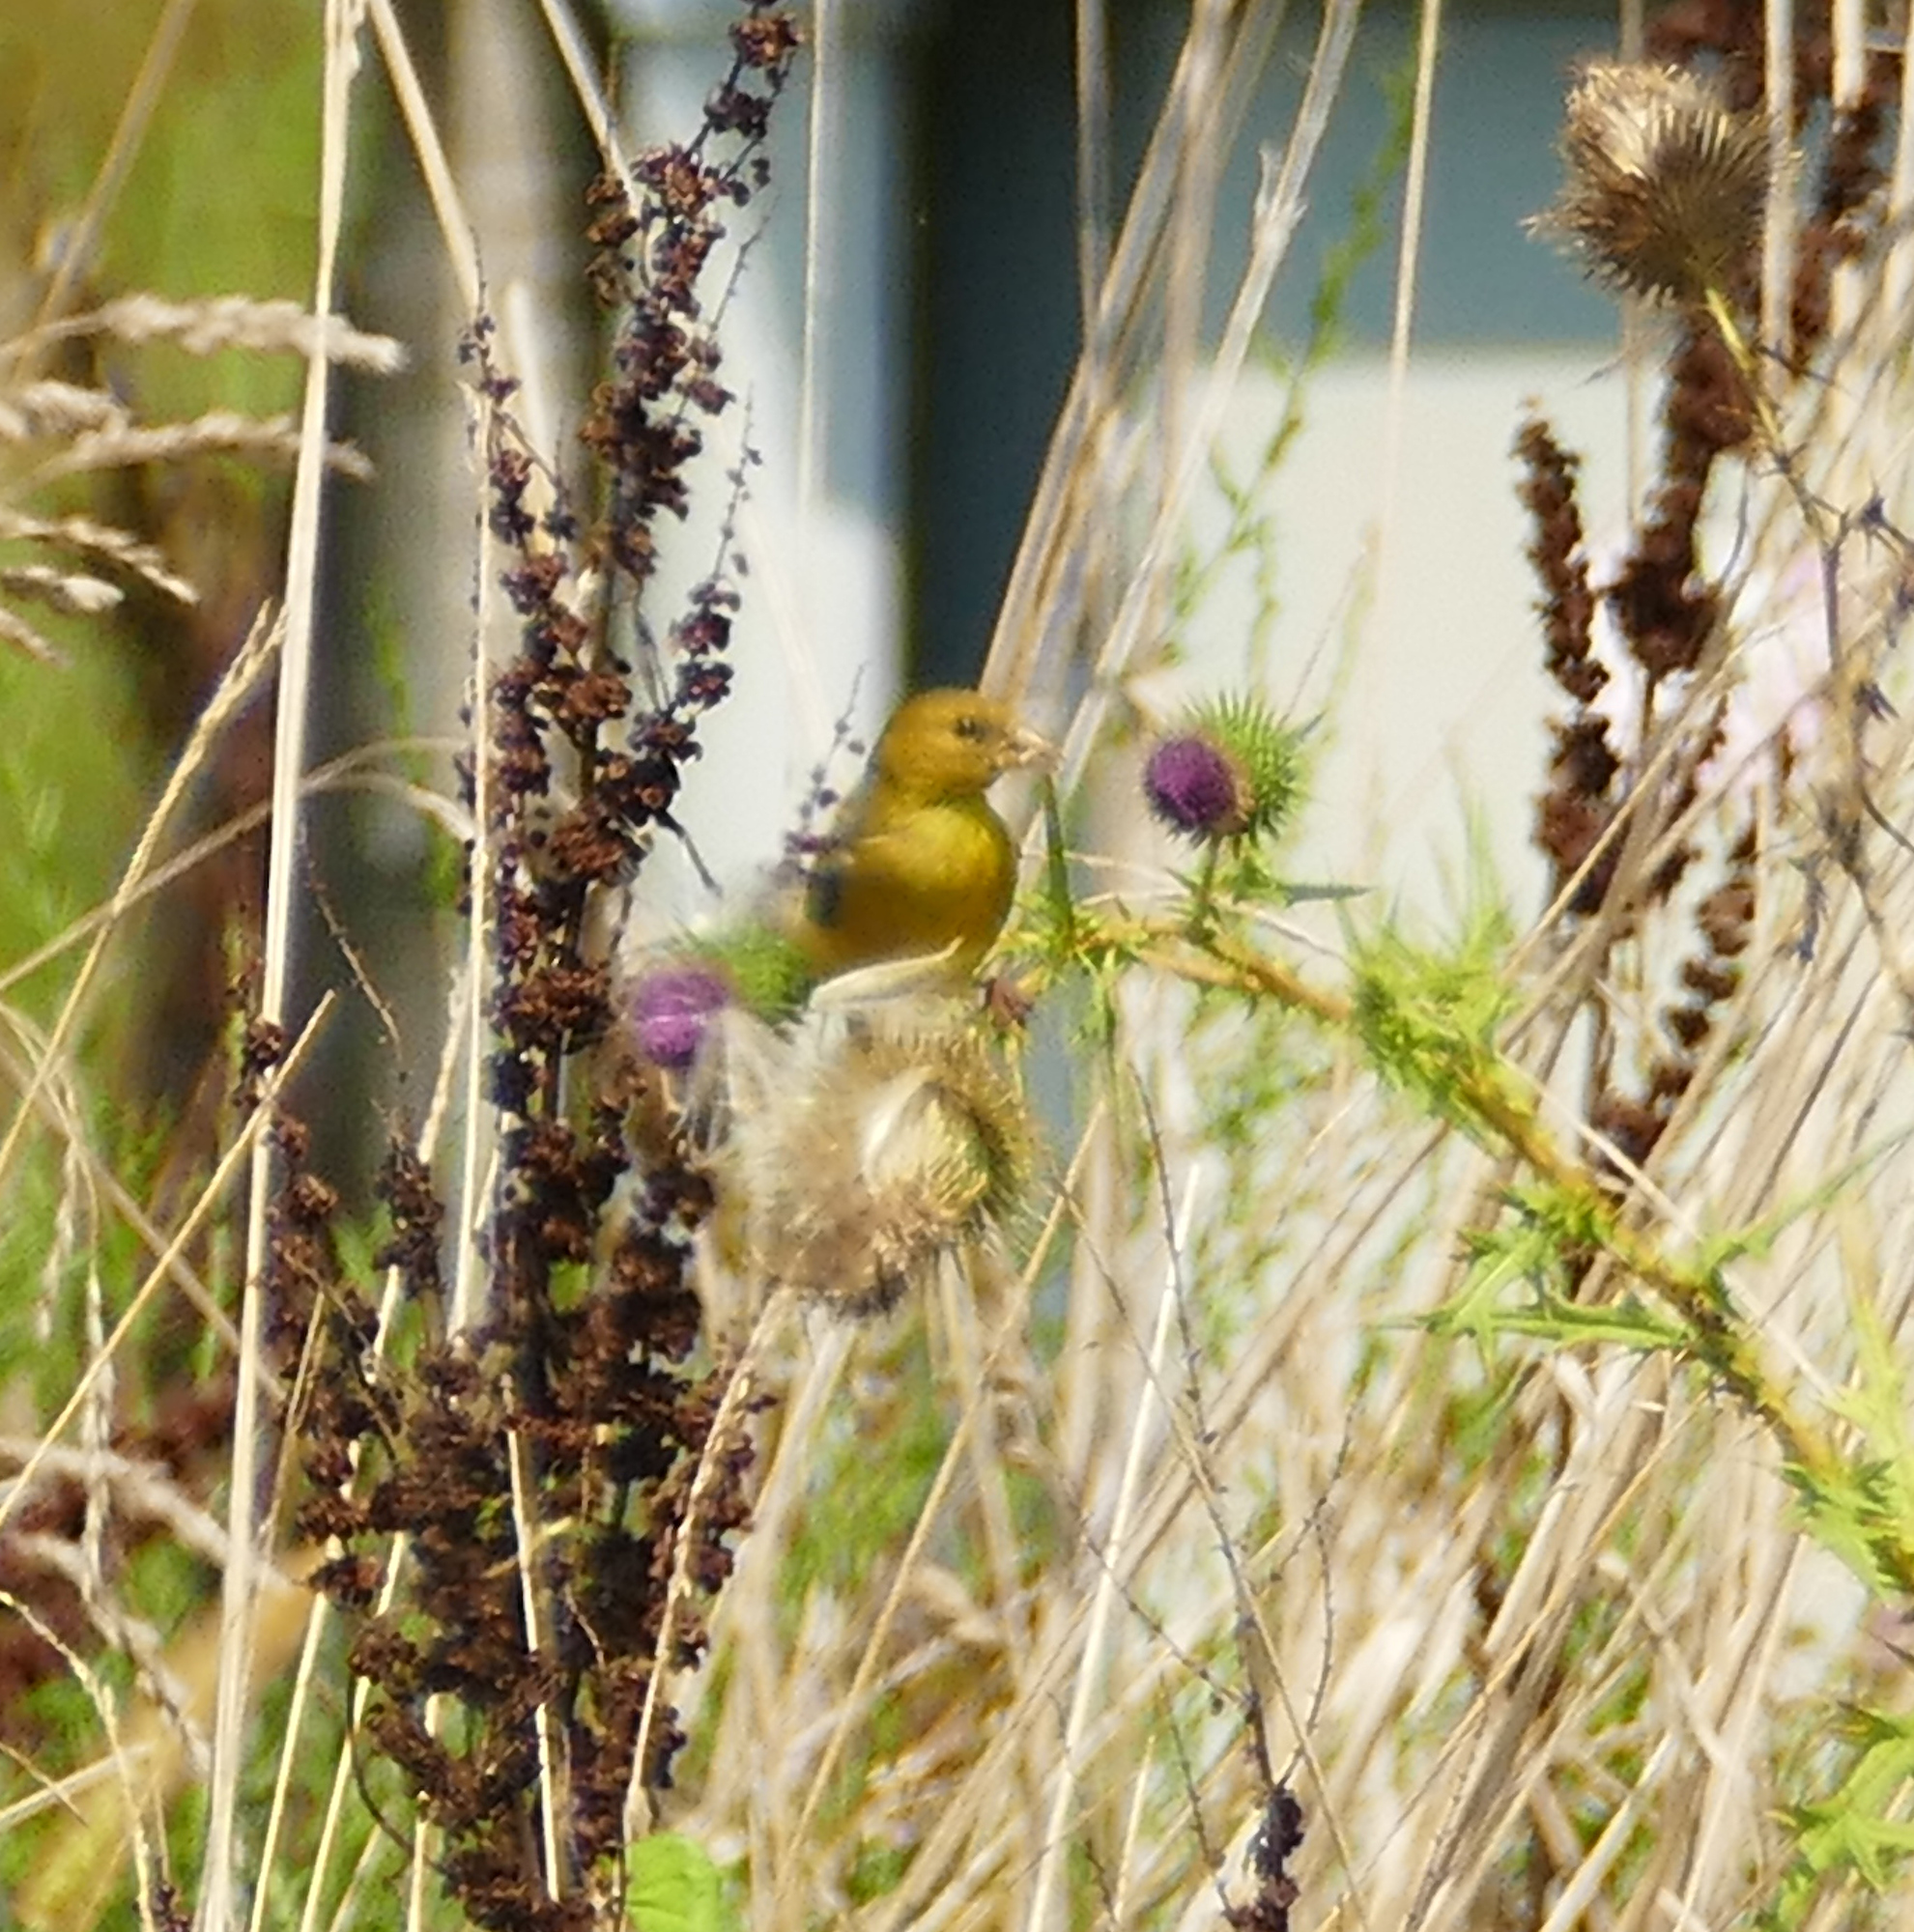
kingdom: Animalia
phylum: Chordata
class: Aves
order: Passeriformes
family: Fringillidae
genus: Spinus
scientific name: Spinus tristis
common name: American goldfinch
